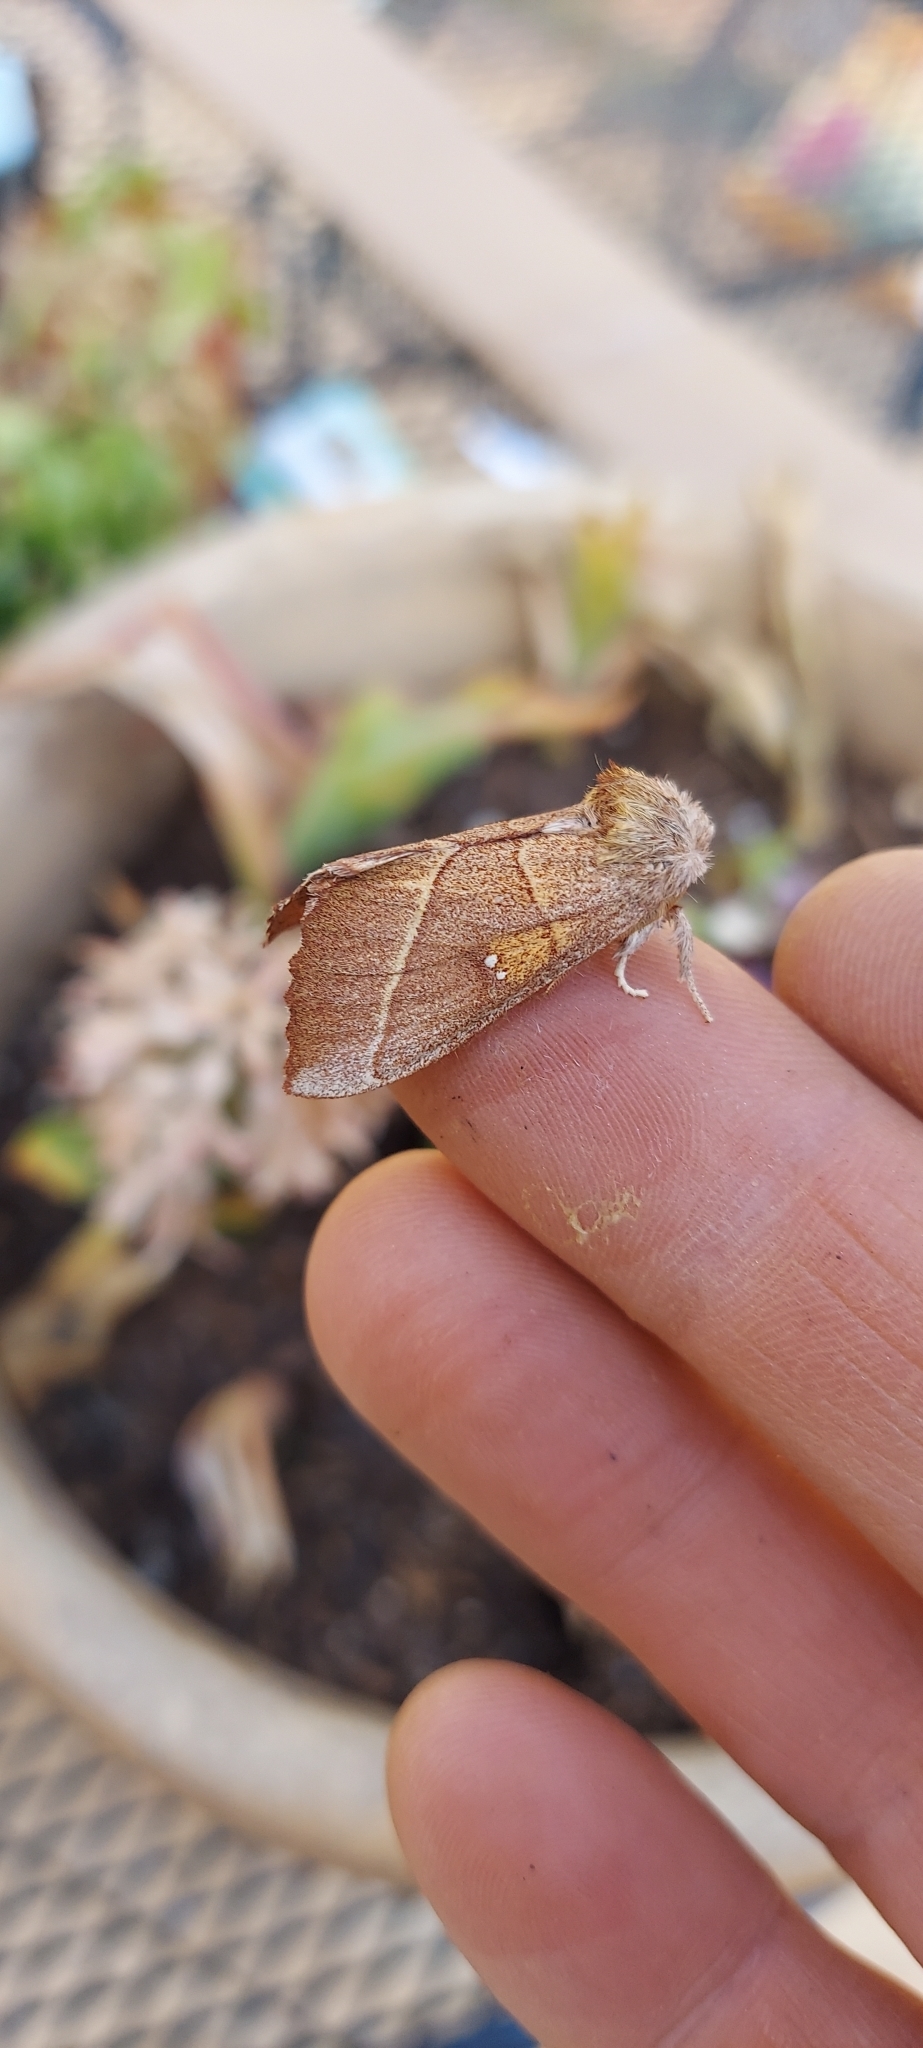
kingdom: Animalia
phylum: Arthropoda
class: Insecta
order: Lepidoptera
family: Notodontidae
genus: Nadata
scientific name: Nadata gibbosa
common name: White-dotted prominent
